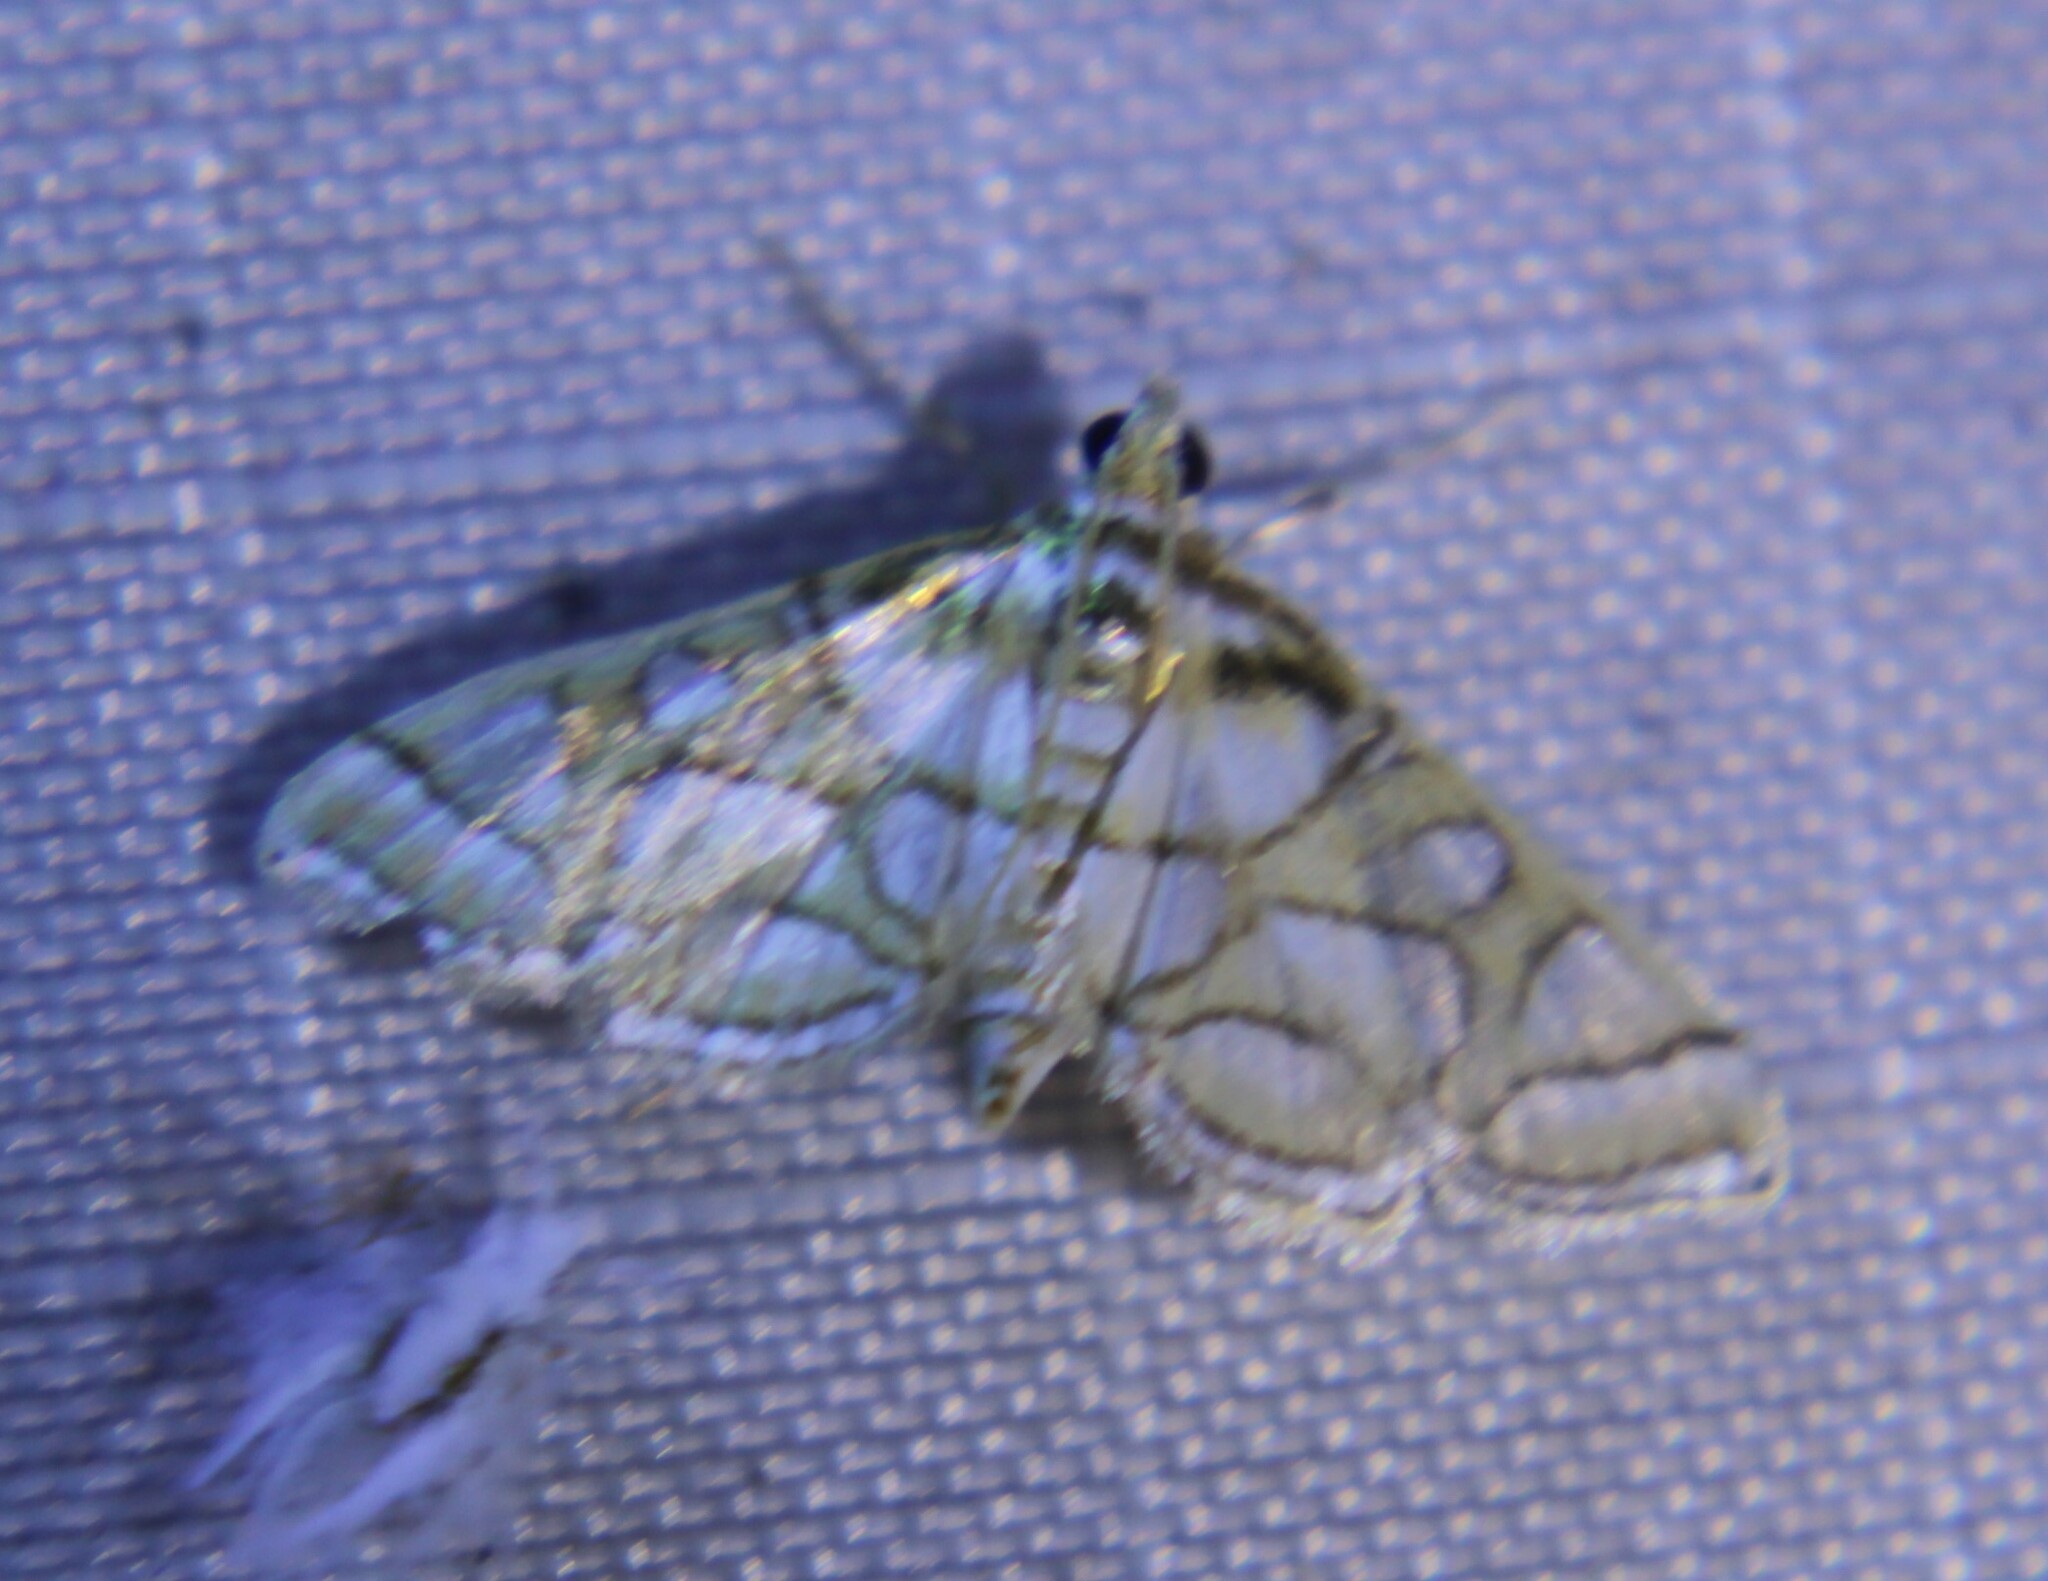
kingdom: Animalia
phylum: Arthropoda
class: Insecta
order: Lepidoptera
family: Crambidae
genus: Pseudopyrausta
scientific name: Pseudopyrausta santatalis
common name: Moth
